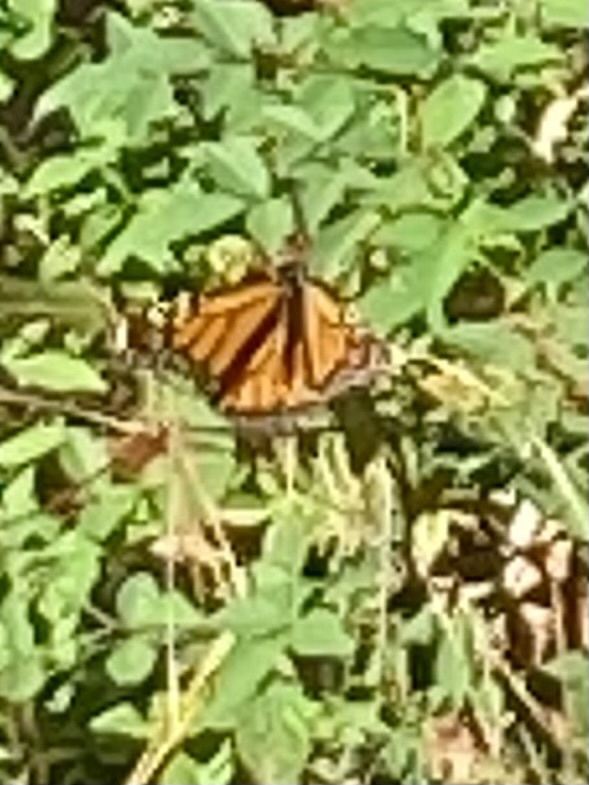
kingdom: Animalia
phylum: Arthropoda
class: Insecta
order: Lepidoptera
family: Nymphalidae
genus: Danaus
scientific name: Danaus plexippus
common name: Monarch
